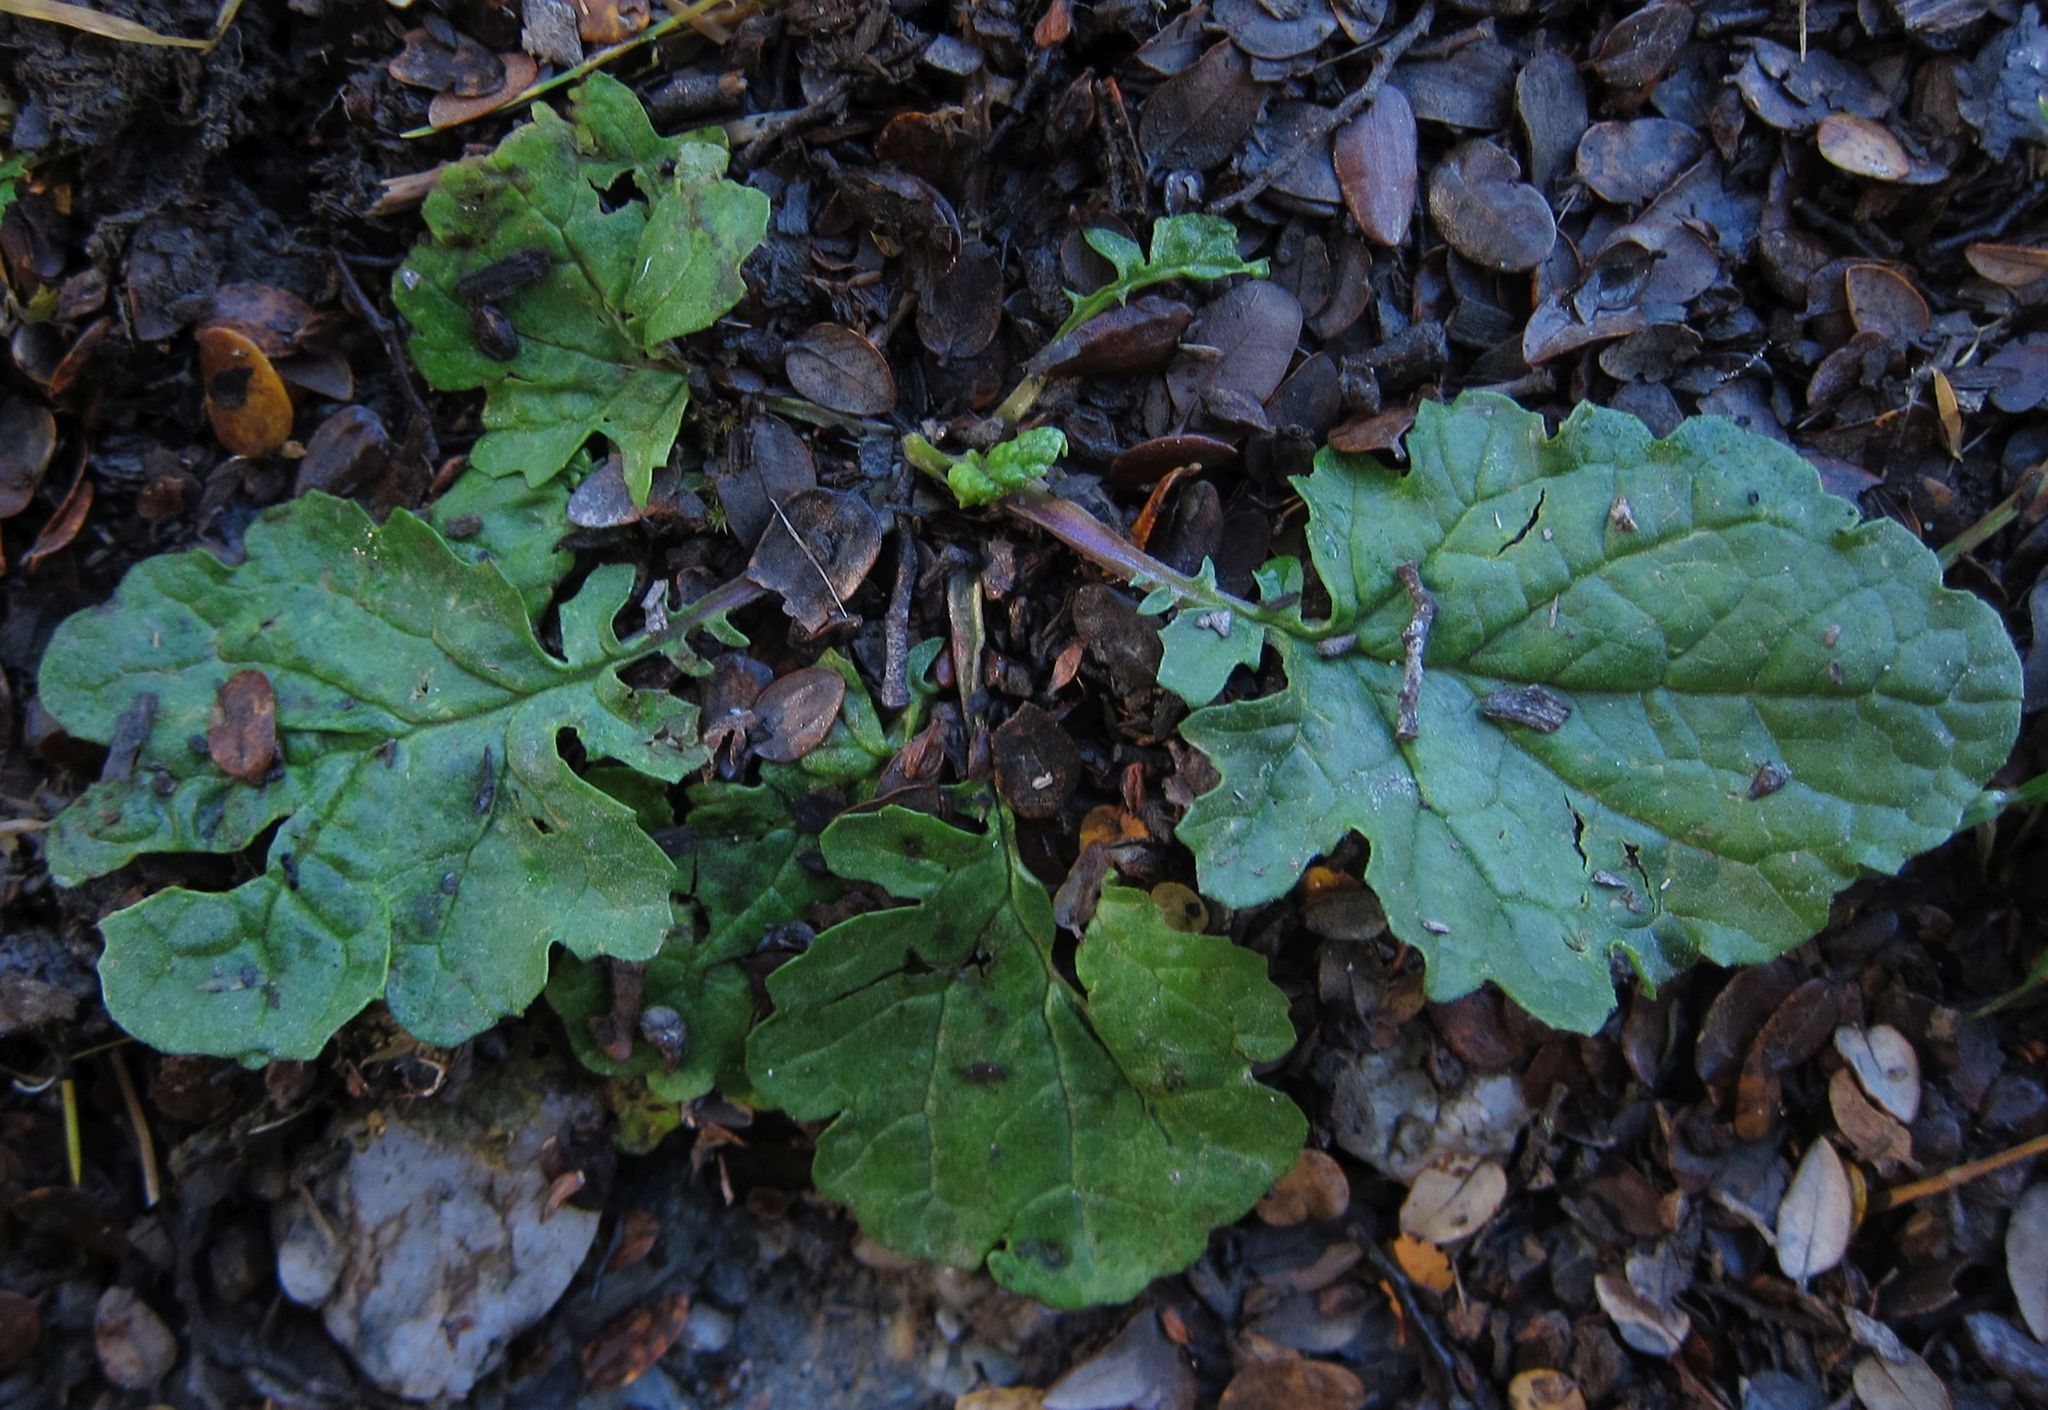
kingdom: Plantae
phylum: Tracheophyta
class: Magnoliopsida
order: Asterales
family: Asteraceae
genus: Jacobaea
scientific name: Jacobaea vulgaris
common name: Stinking willie
